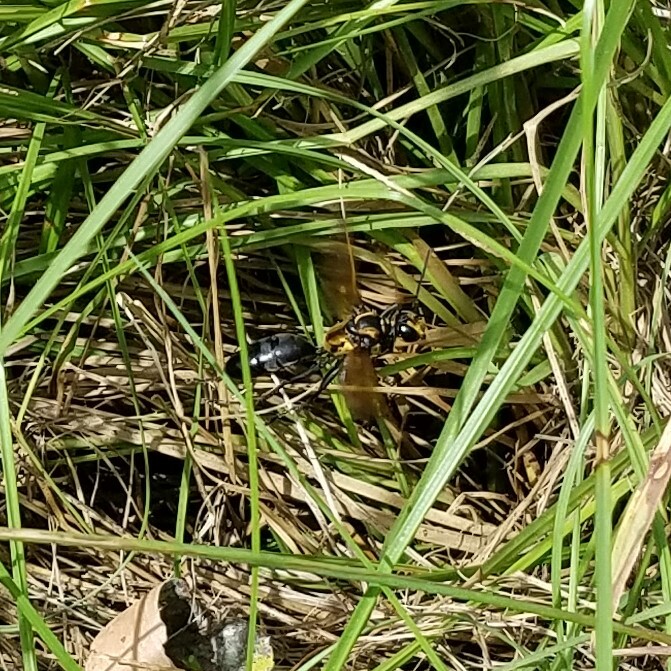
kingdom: Animalia
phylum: Arthropoda
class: Insecta
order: Hymenoptera
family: Sphecidae
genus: Sphex
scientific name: Sphex habenus
